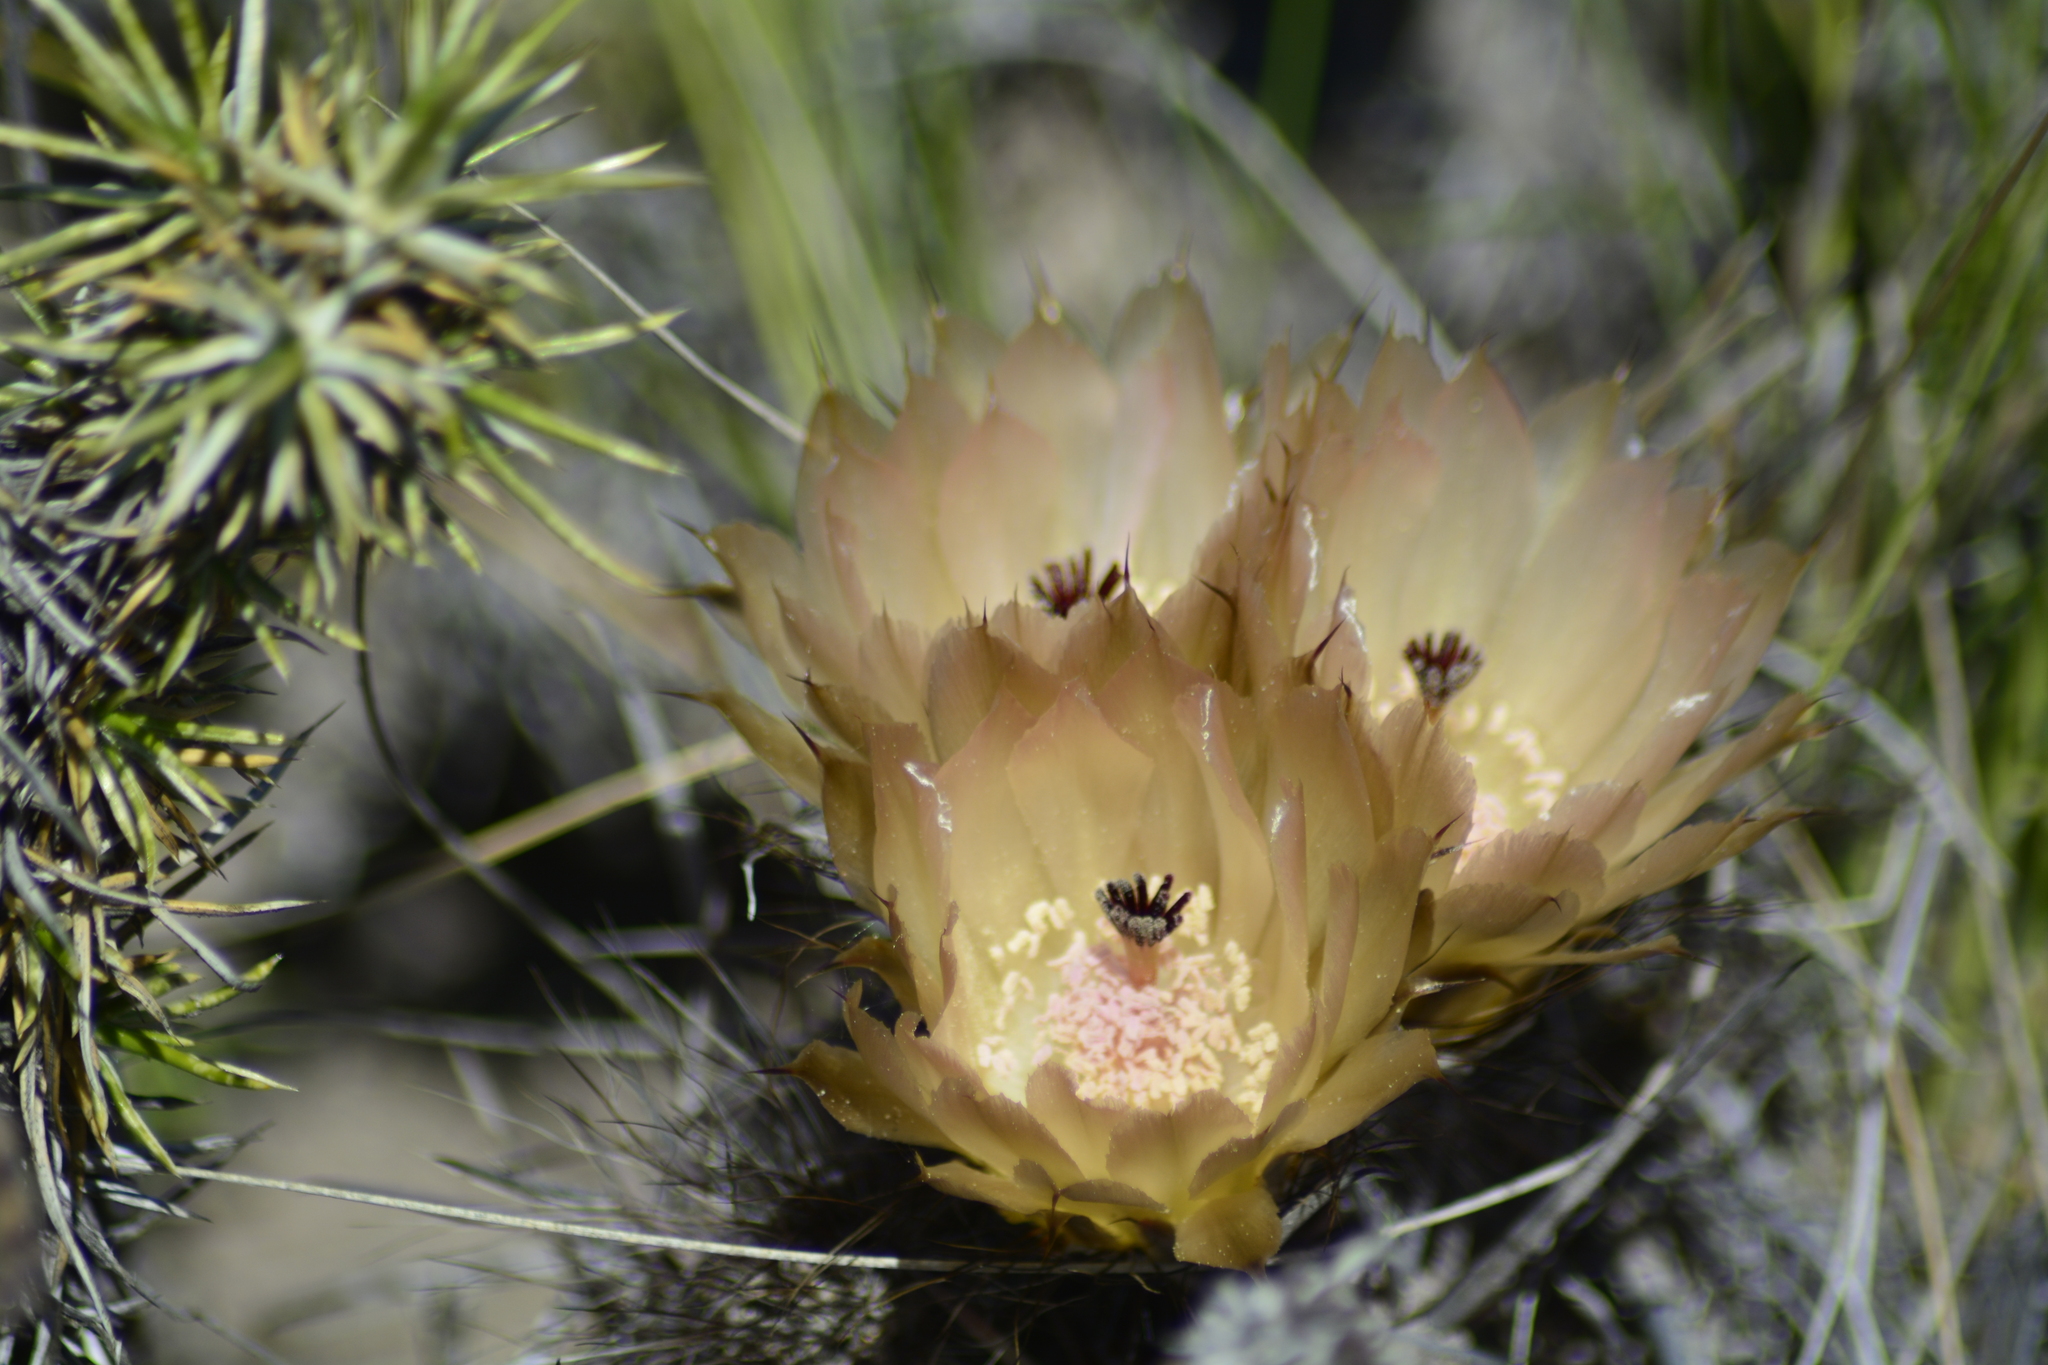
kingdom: Plantae
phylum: Tracheophyta
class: Magnoliopsida
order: Caryophyllales
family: Cactaceae
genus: Austrocactus
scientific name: Austrocactus bertinii
